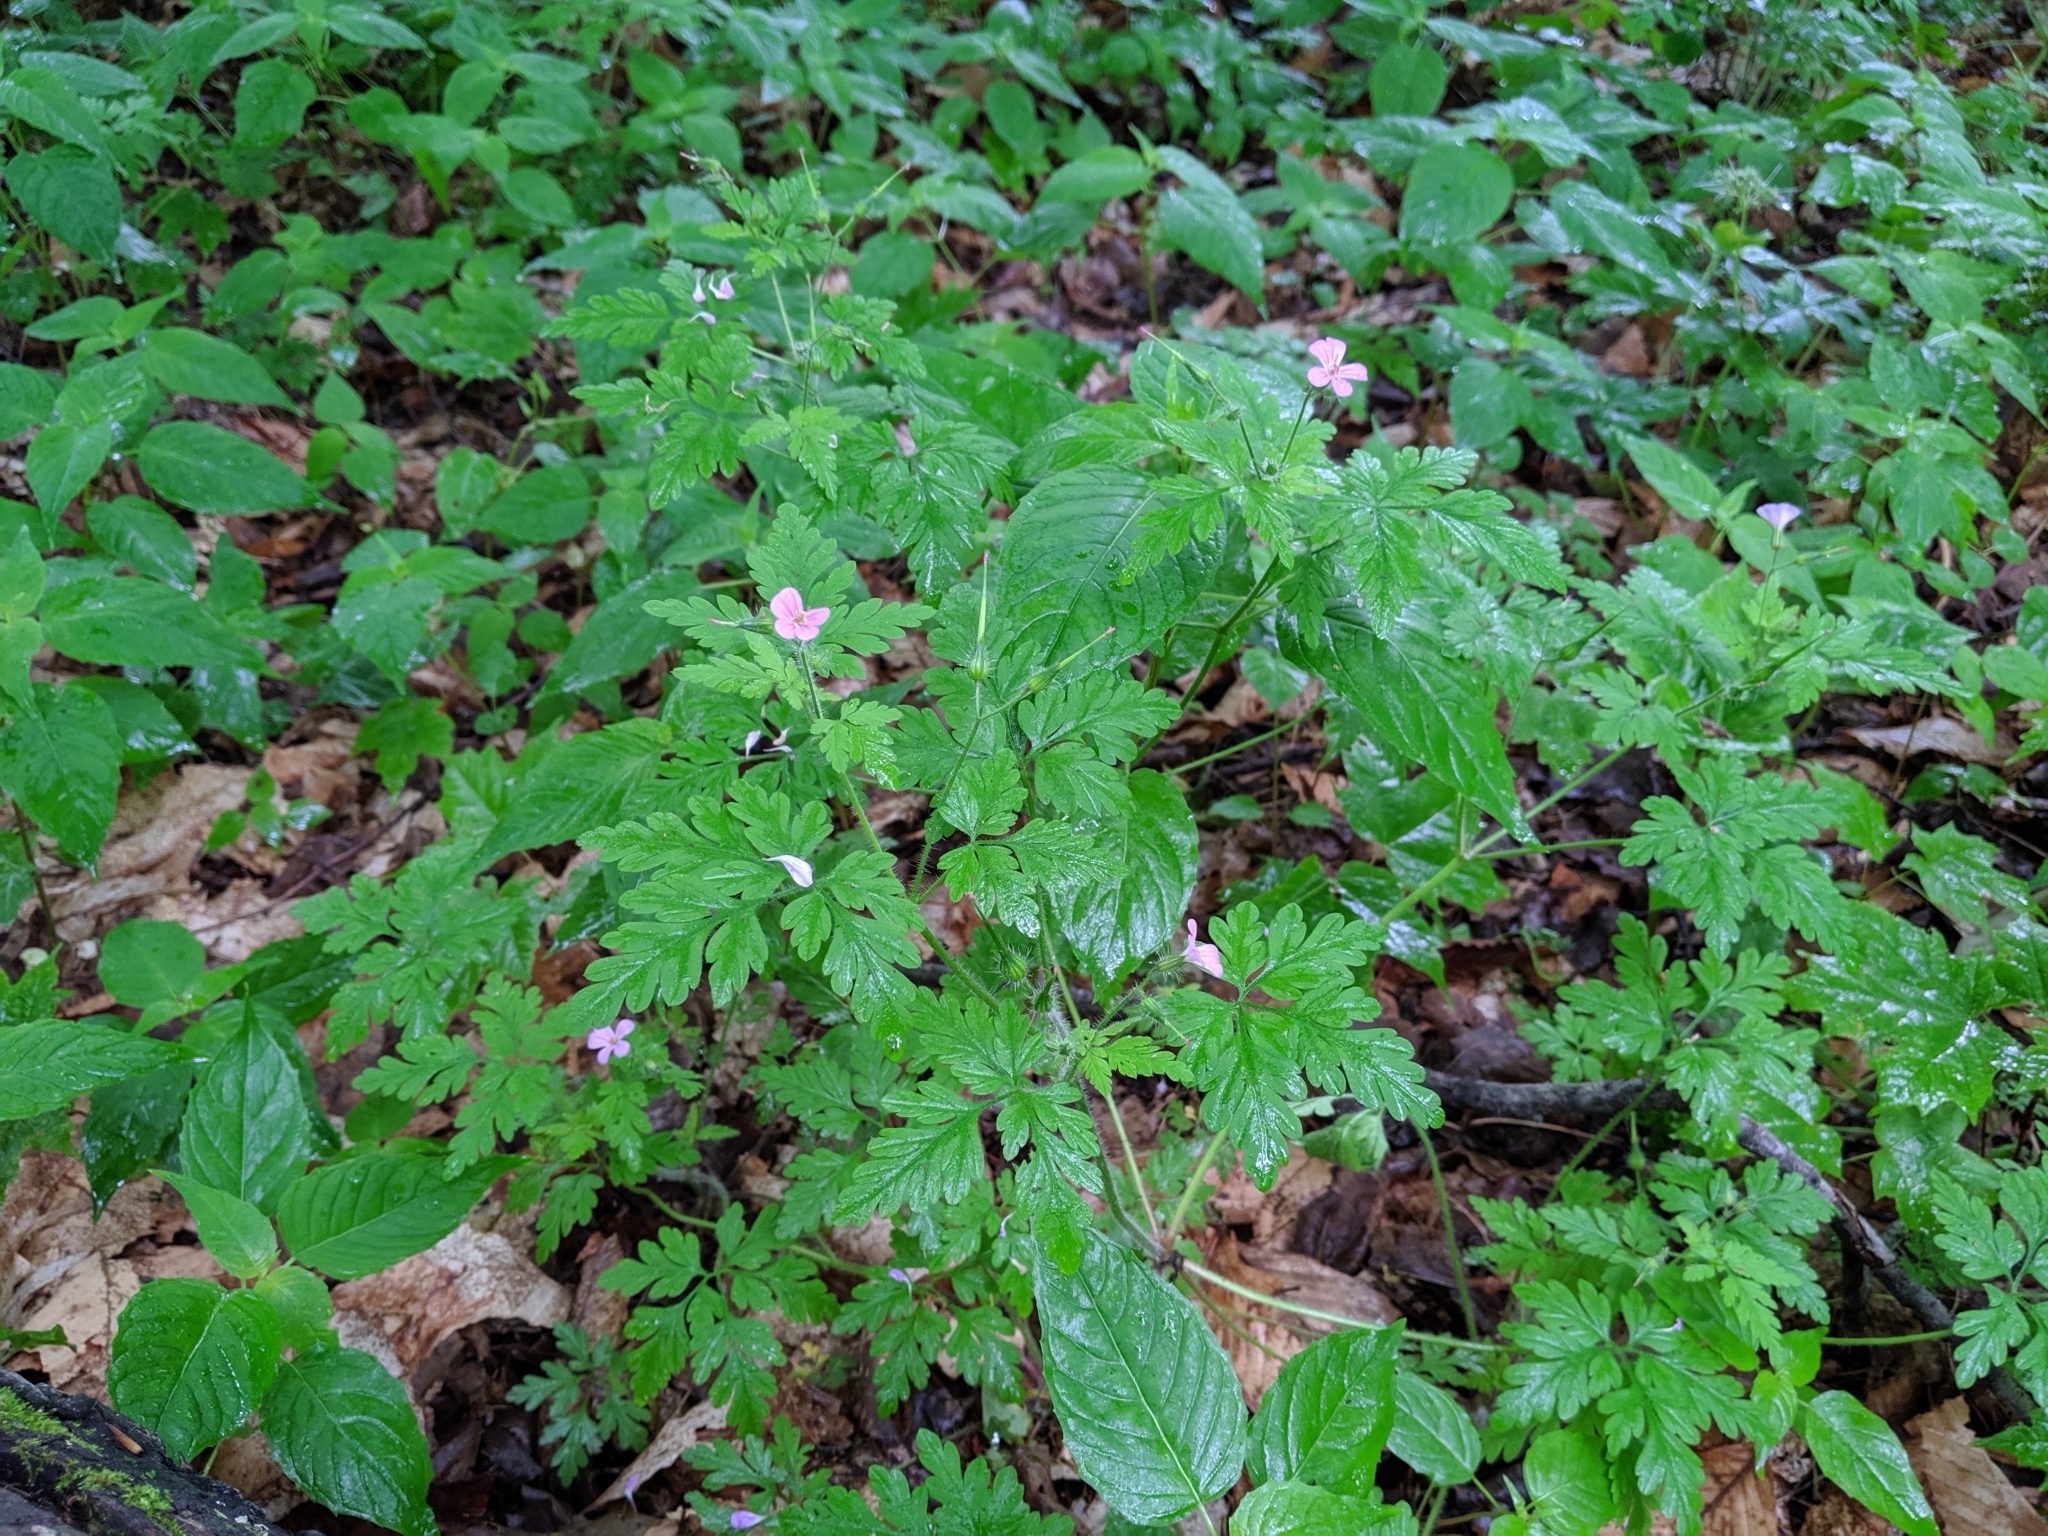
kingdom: Plantae
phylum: Tracheophyta
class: Magnoliopsida
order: Geraniales
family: Geraniaceae
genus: Geranium
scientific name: Geranium robertianum
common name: Herb-robert
